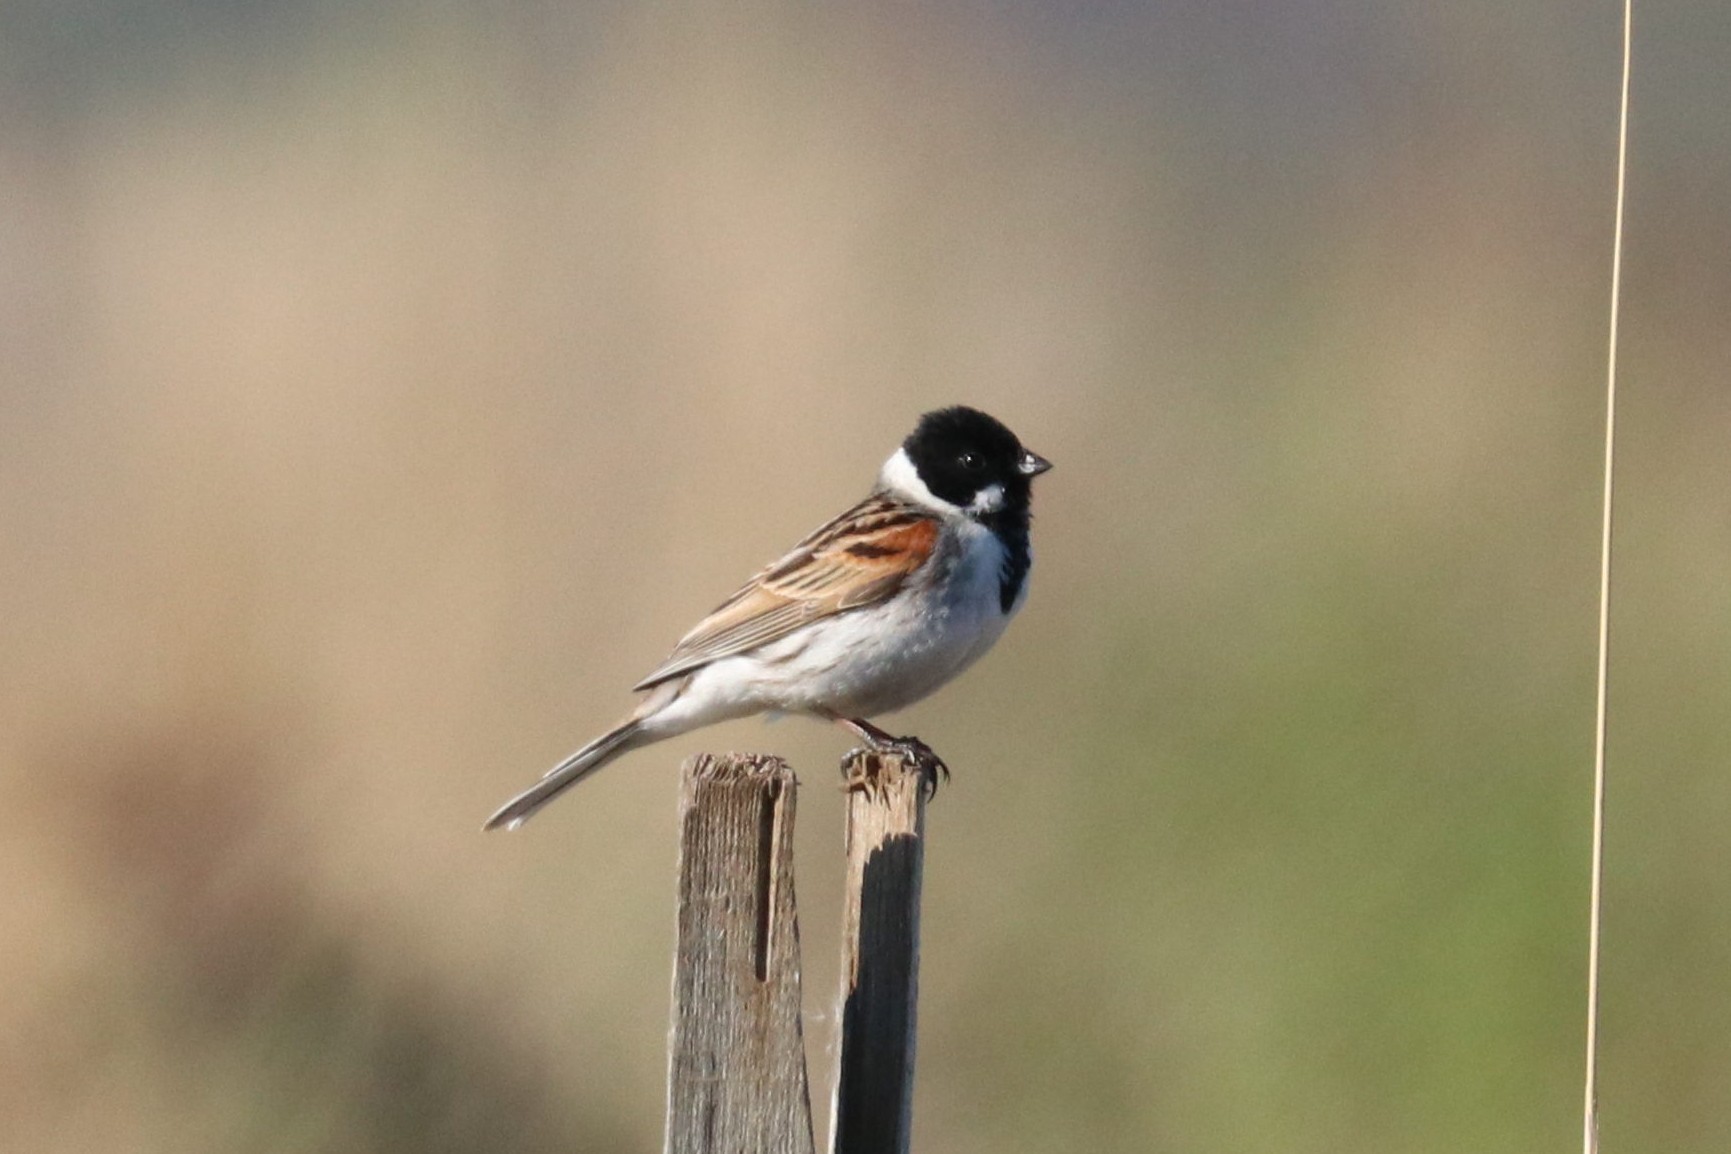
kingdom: Animalia
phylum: Chordata
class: Aves
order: Passeriformes
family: Emberizidae
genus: Emberiza
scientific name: Emberiza schoeniclus
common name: Reed bunting
